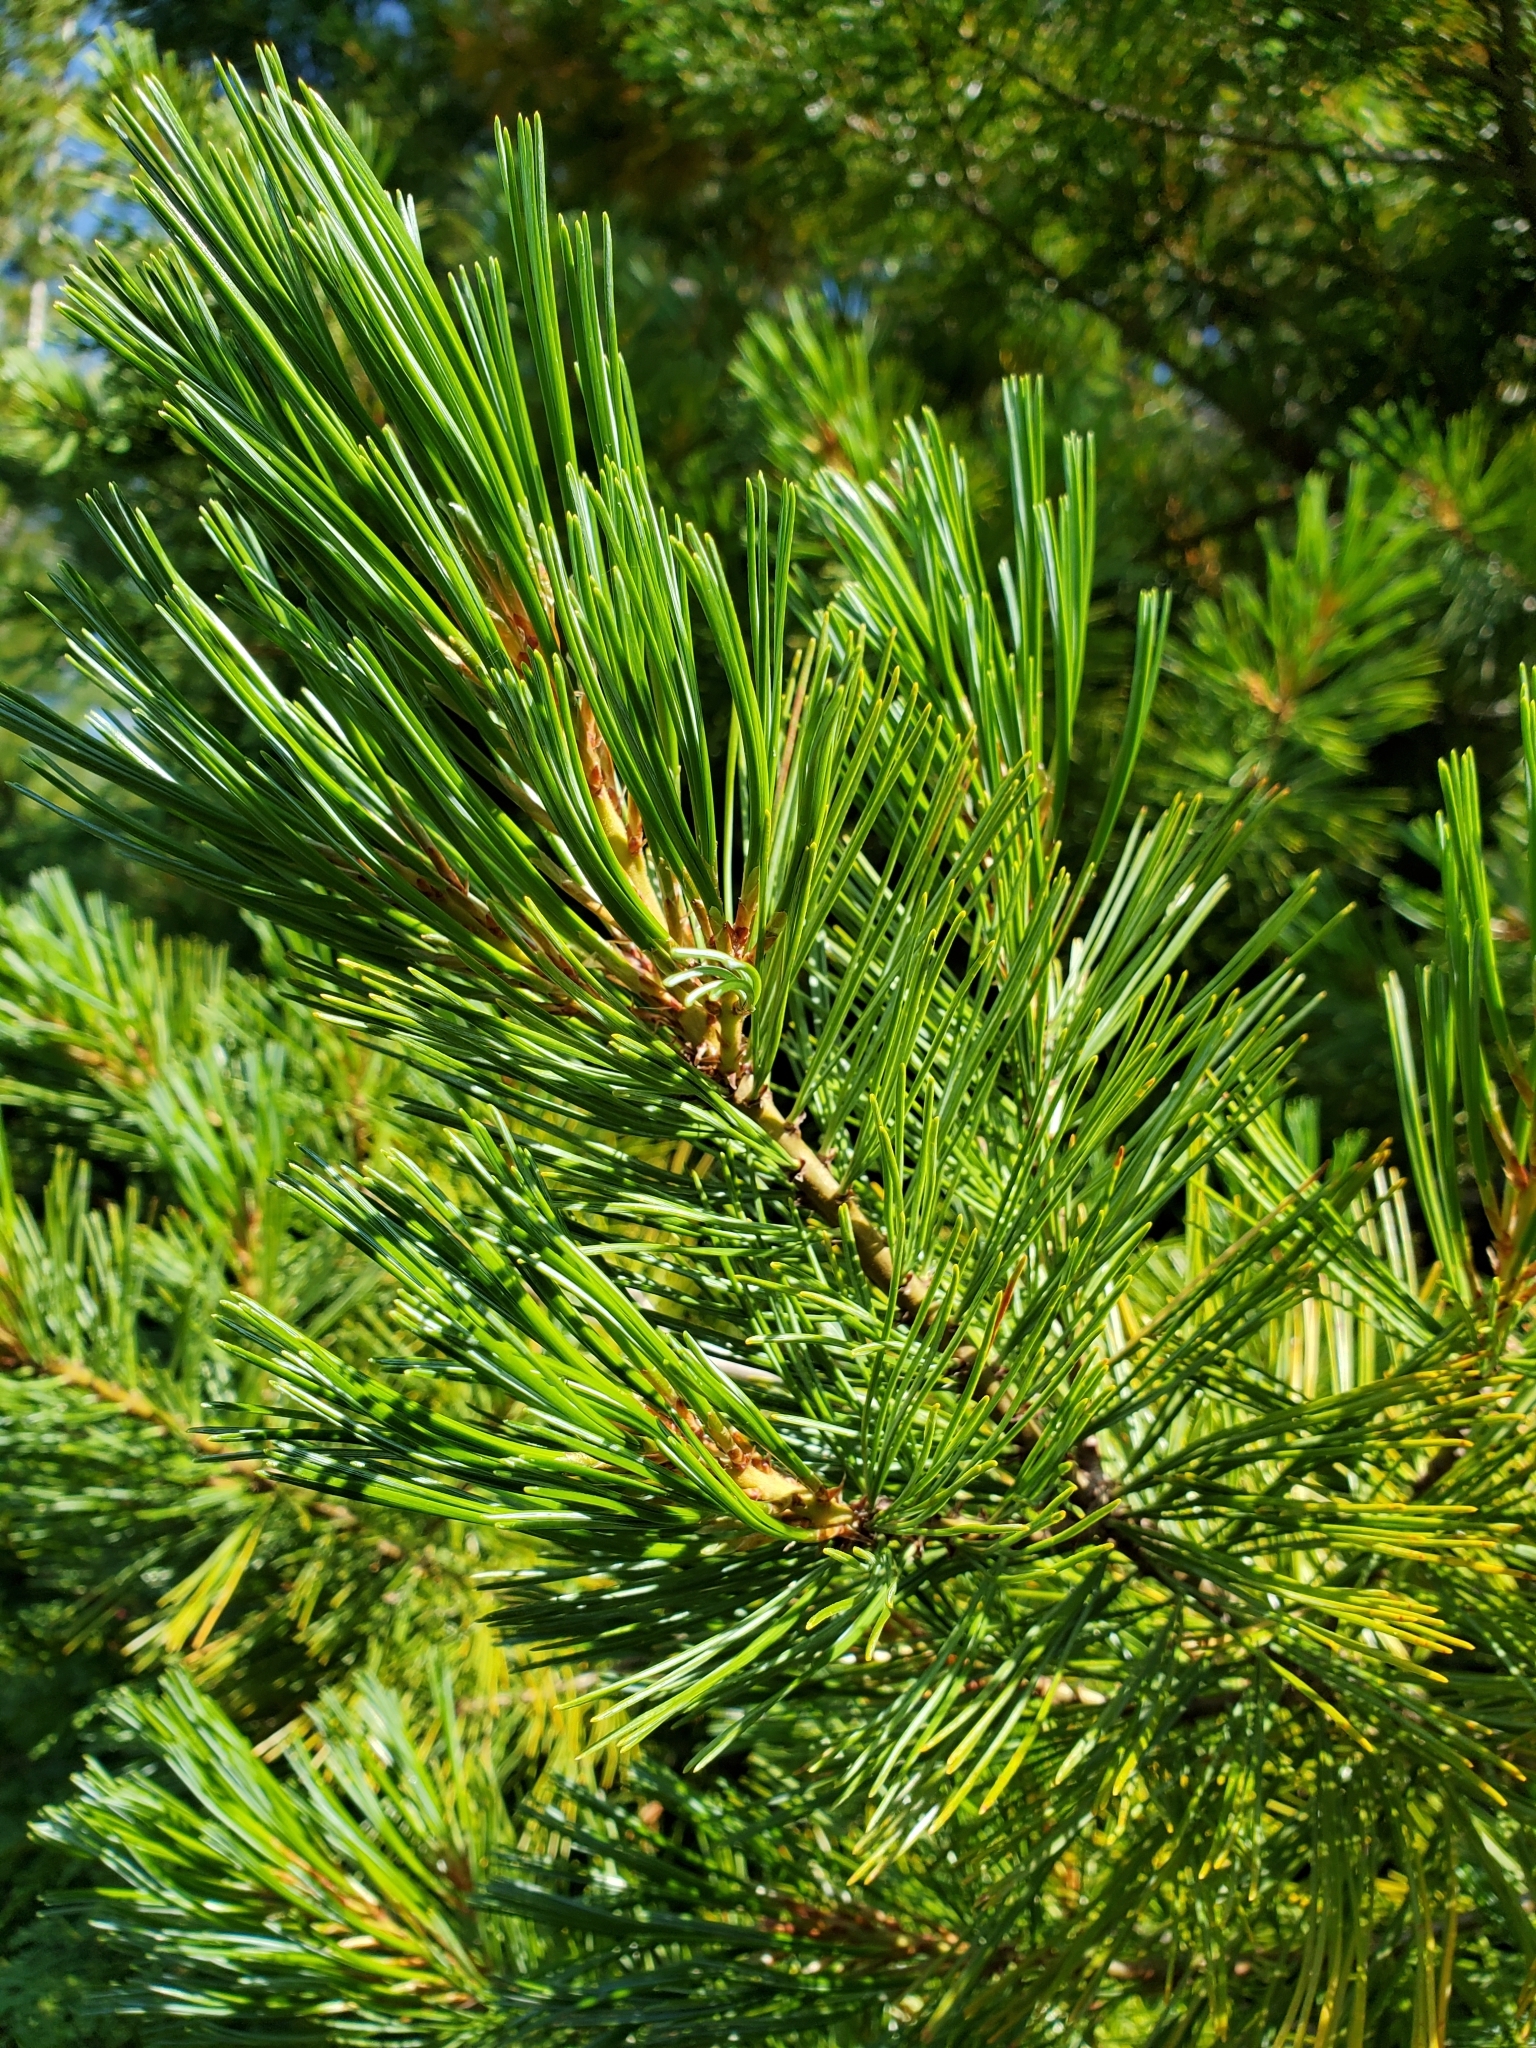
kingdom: Plantae
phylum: Tracheophyta
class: Pinopsida
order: Pinales
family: Pinaceae
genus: Pinus
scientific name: Pinus monticola
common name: Western white pine
